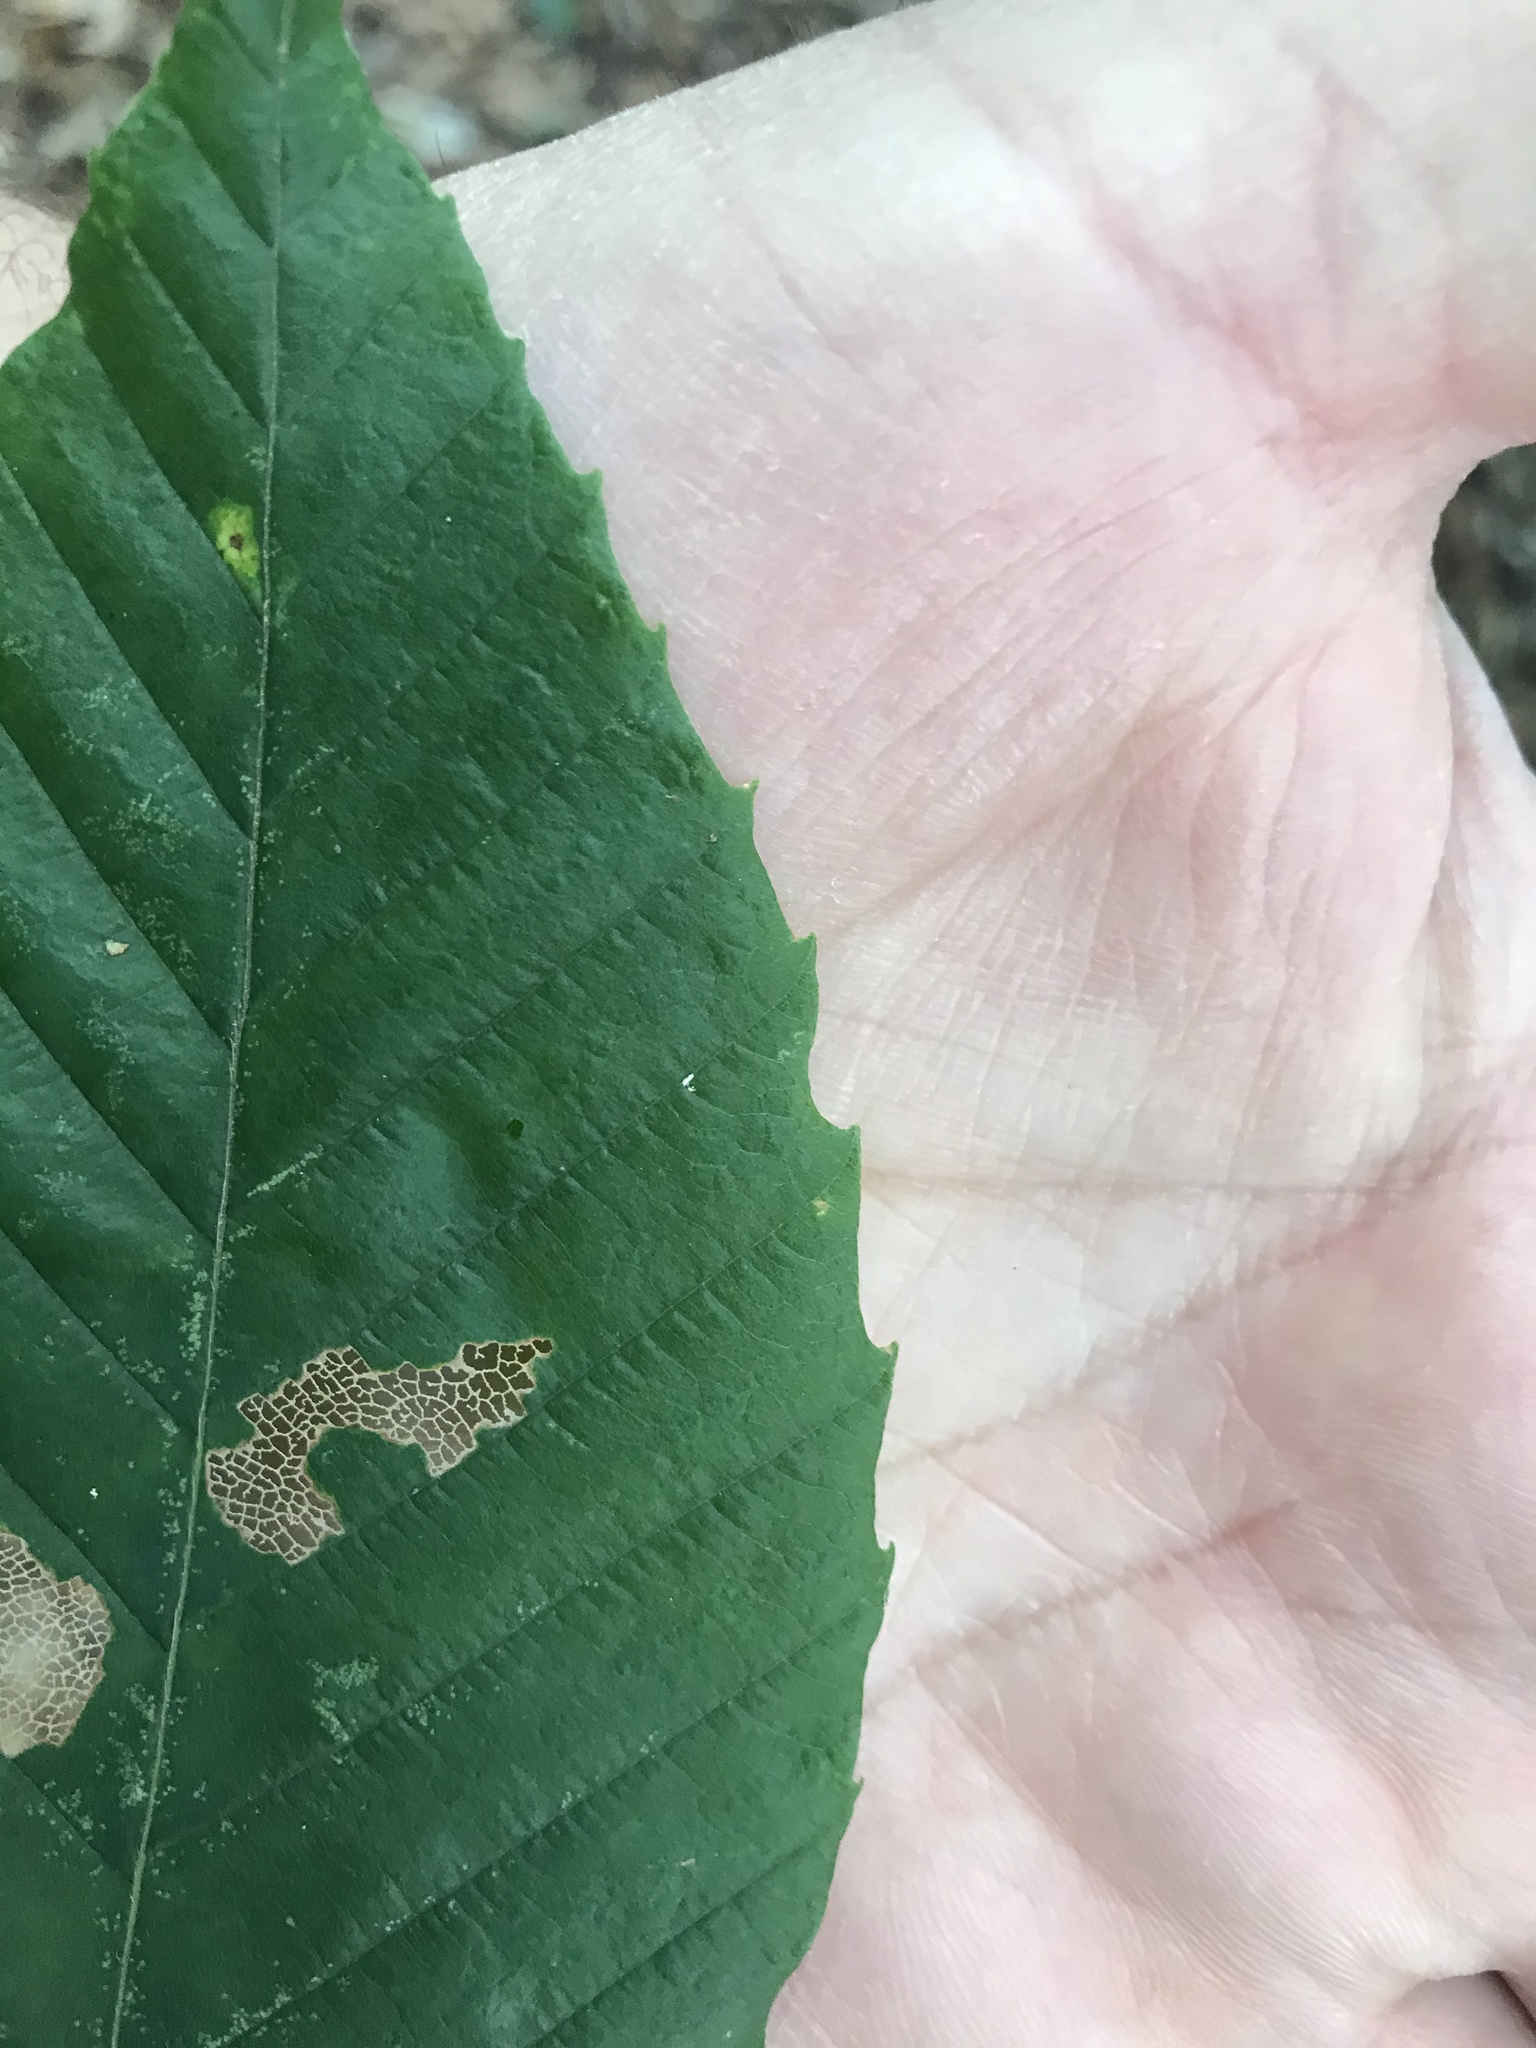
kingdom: Plantae
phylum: Tracheophyta
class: Magnoliopsida
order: Fagales
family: Fagaceae
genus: Fagus
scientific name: Fagus grandifolia
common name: American beech
